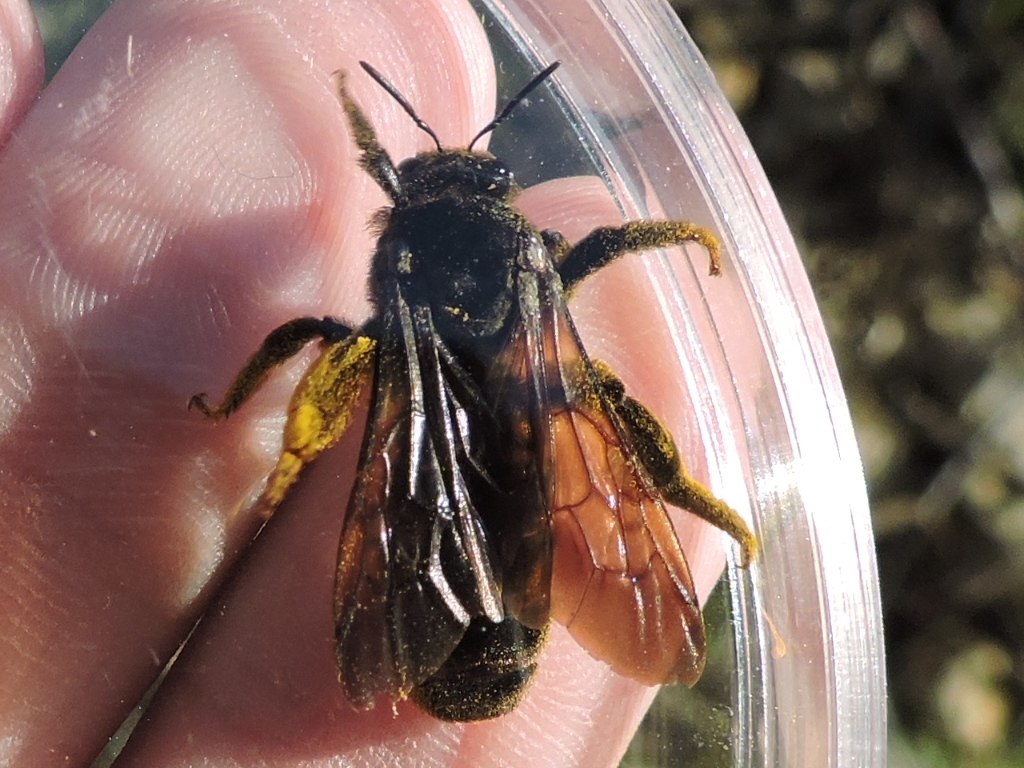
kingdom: Animalia
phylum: Arthropoda
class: Insecta
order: Hymenoptera
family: Halictidae
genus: Dieunomia
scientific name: Dieunomia heteropoda
